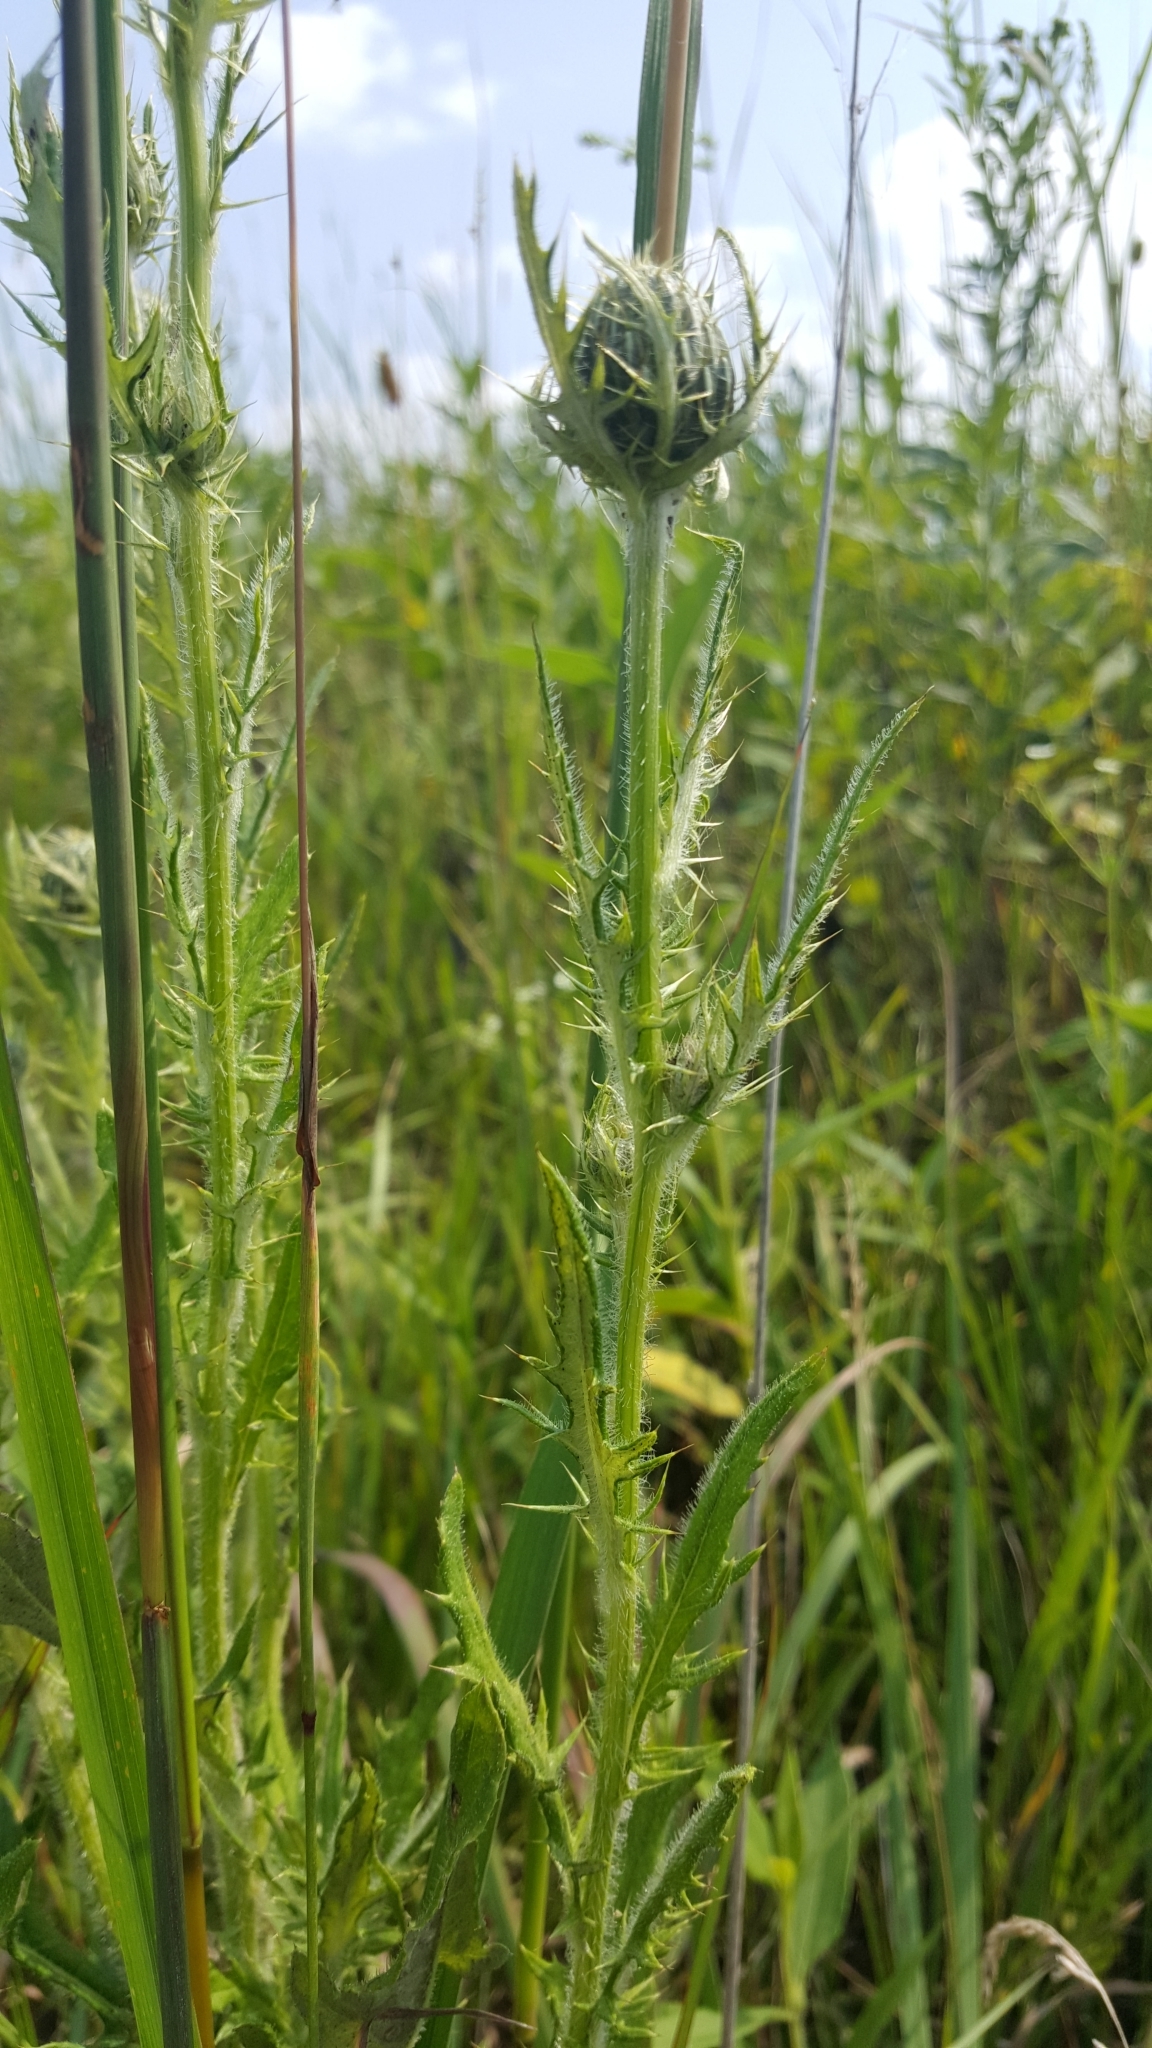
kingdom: Plantae
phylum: Tracheophyta
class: Magnoliopsida
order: Asterales
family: Asteraceae
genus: Cirsium
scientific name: Cirsium discolor
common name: Field thistle
